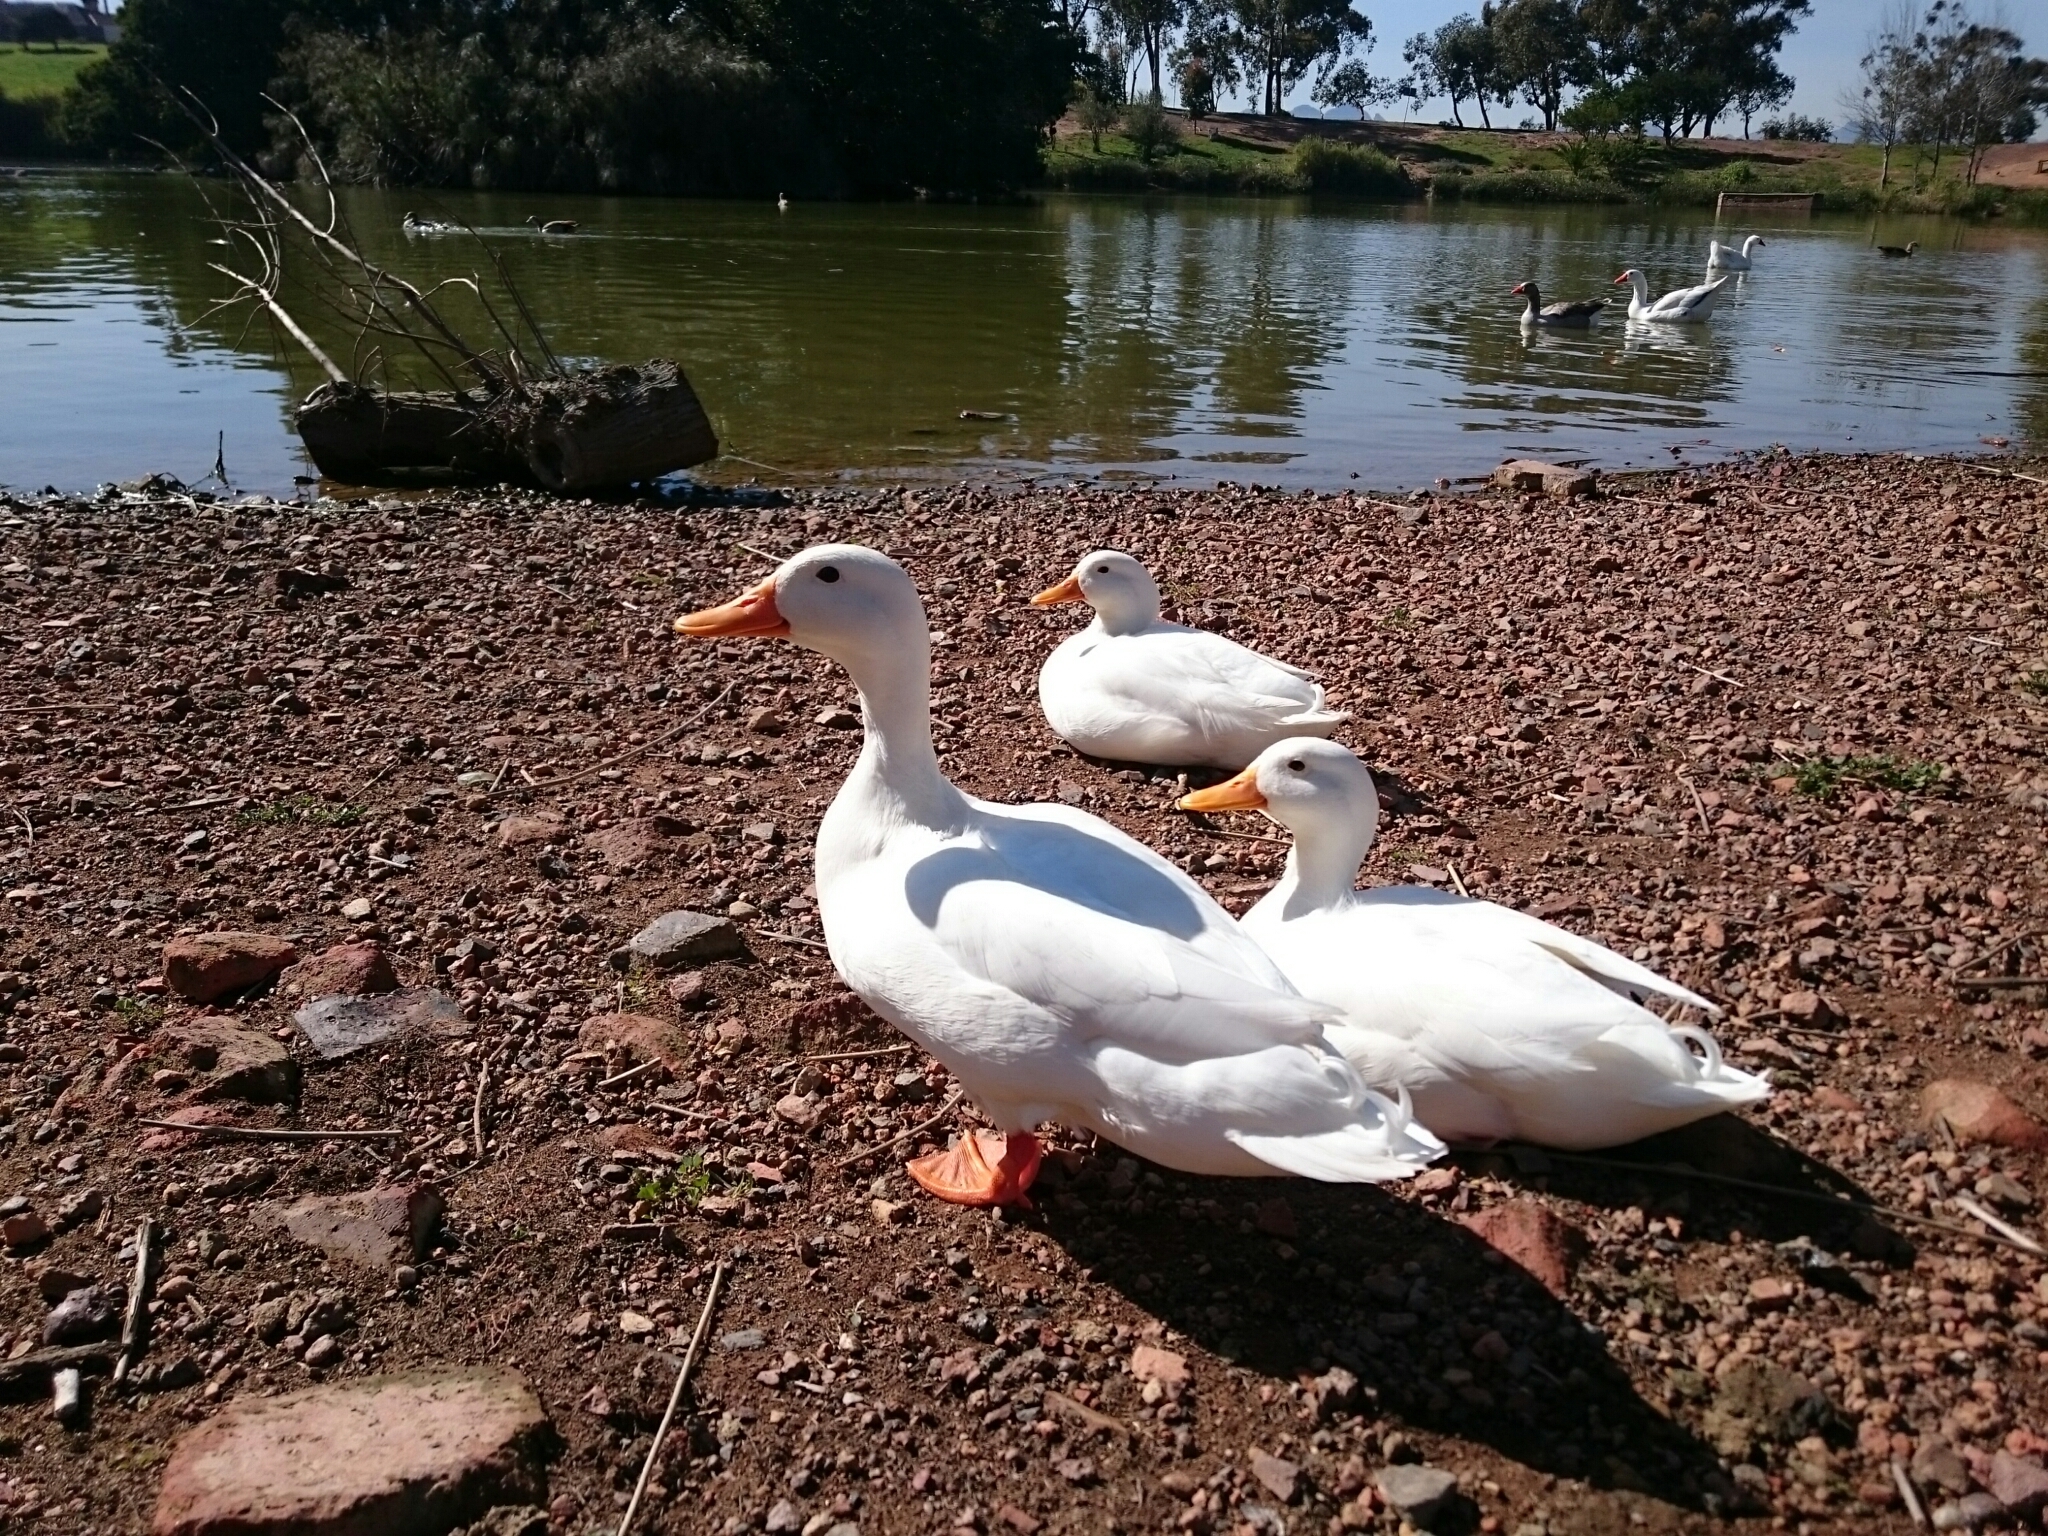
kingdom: Animalia
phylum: Chordata
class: Aves
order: Anseriformes
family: Anatidae
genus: Anas
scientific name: Anas platyrhynchos
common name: Mallard
